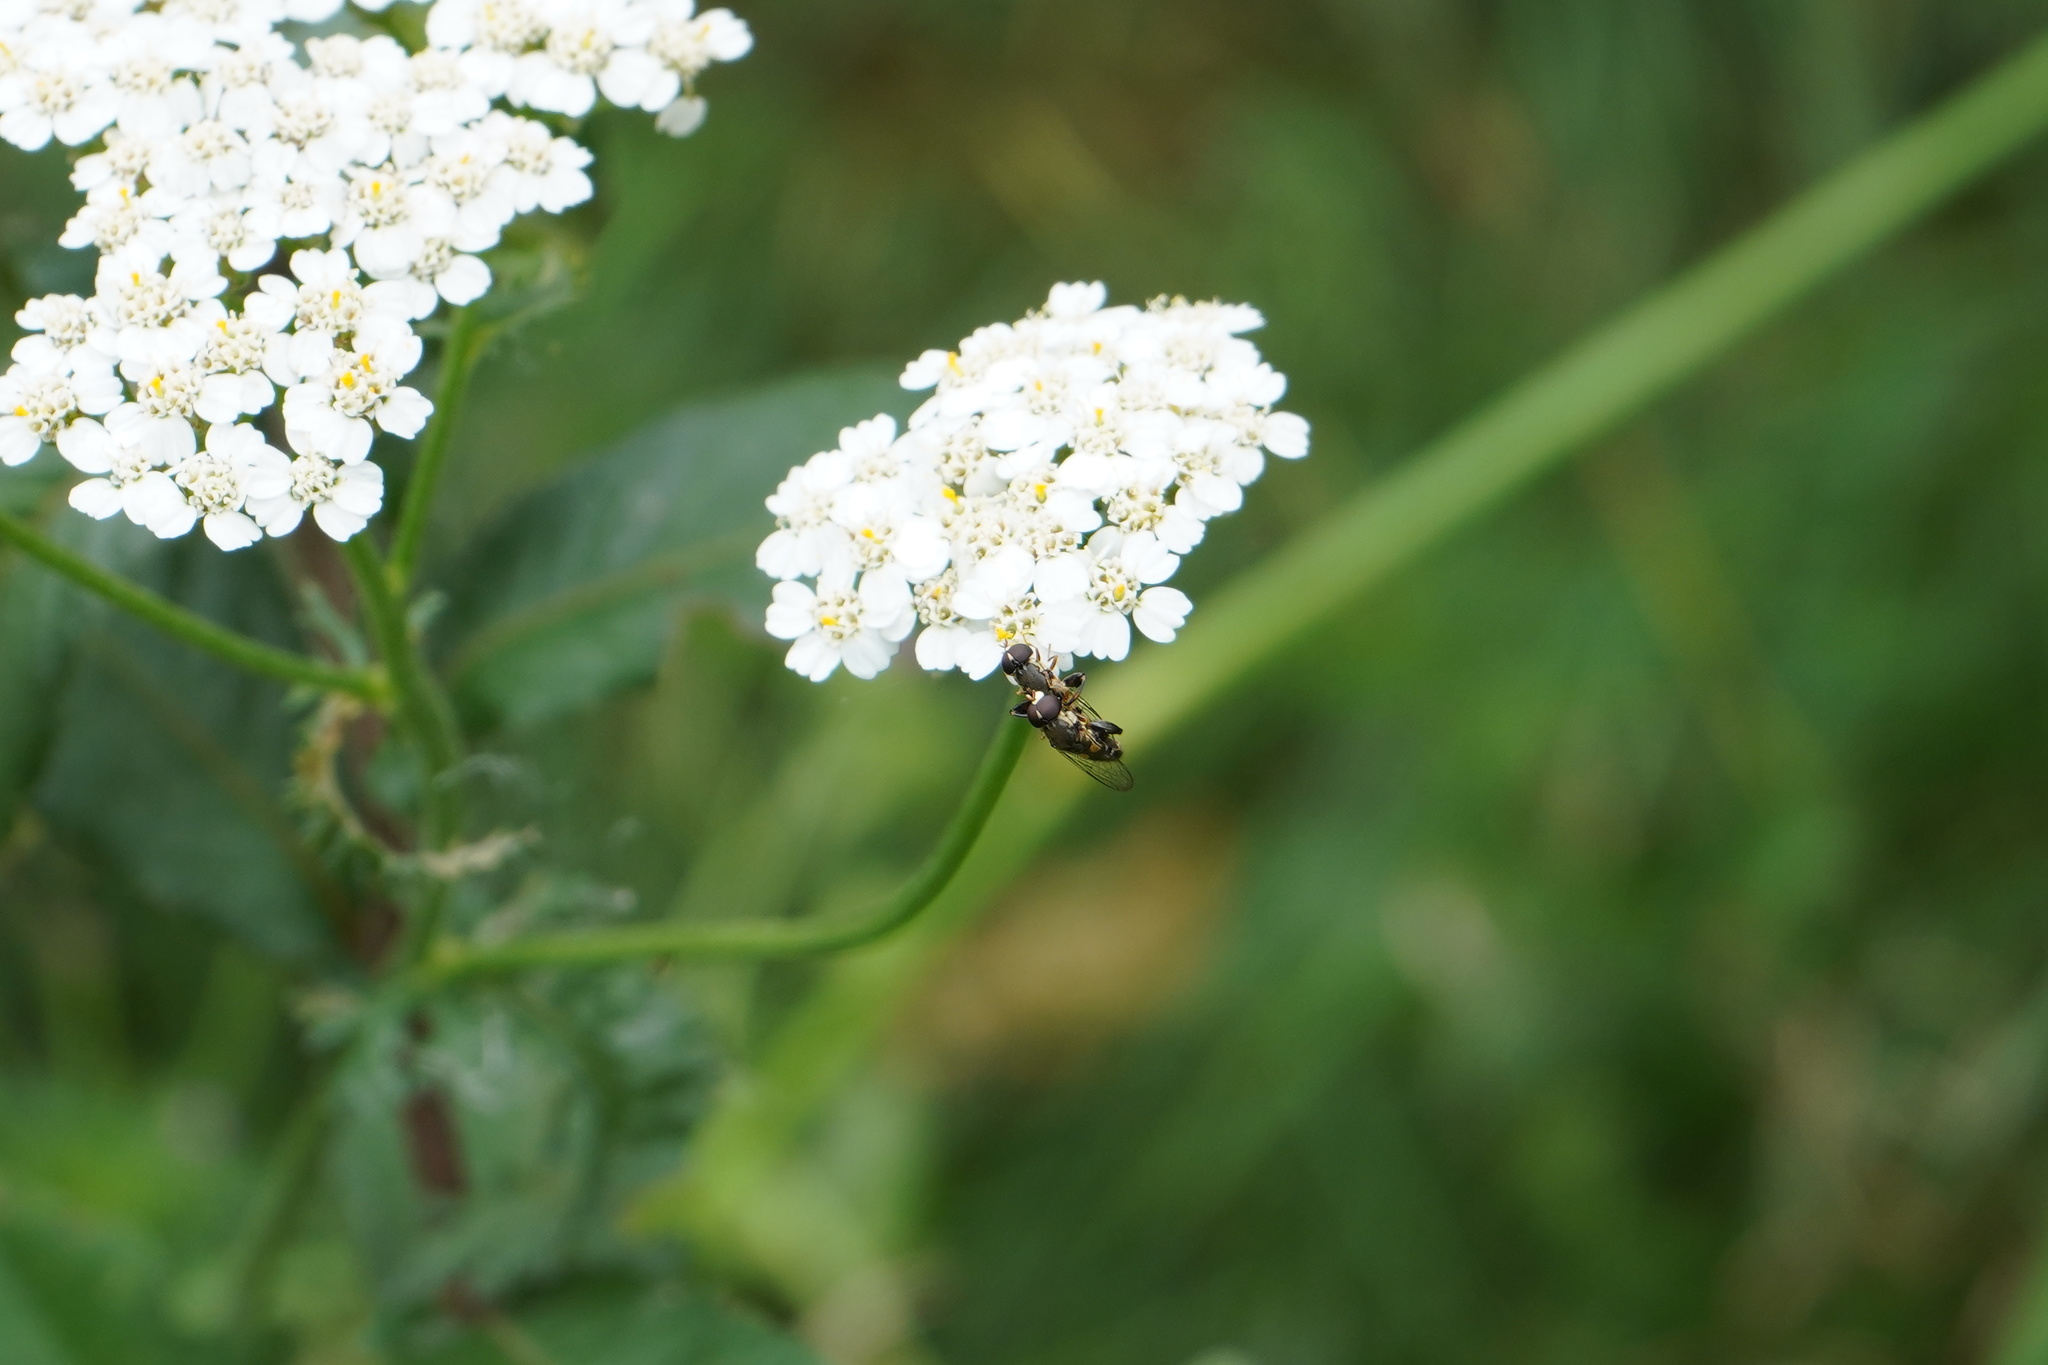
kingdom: Animalia
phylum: Arthropoda
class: Insecta
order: Diptera
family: Syrphidae
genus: Syritta
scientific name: Syritta pipiens
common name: Hover fly
